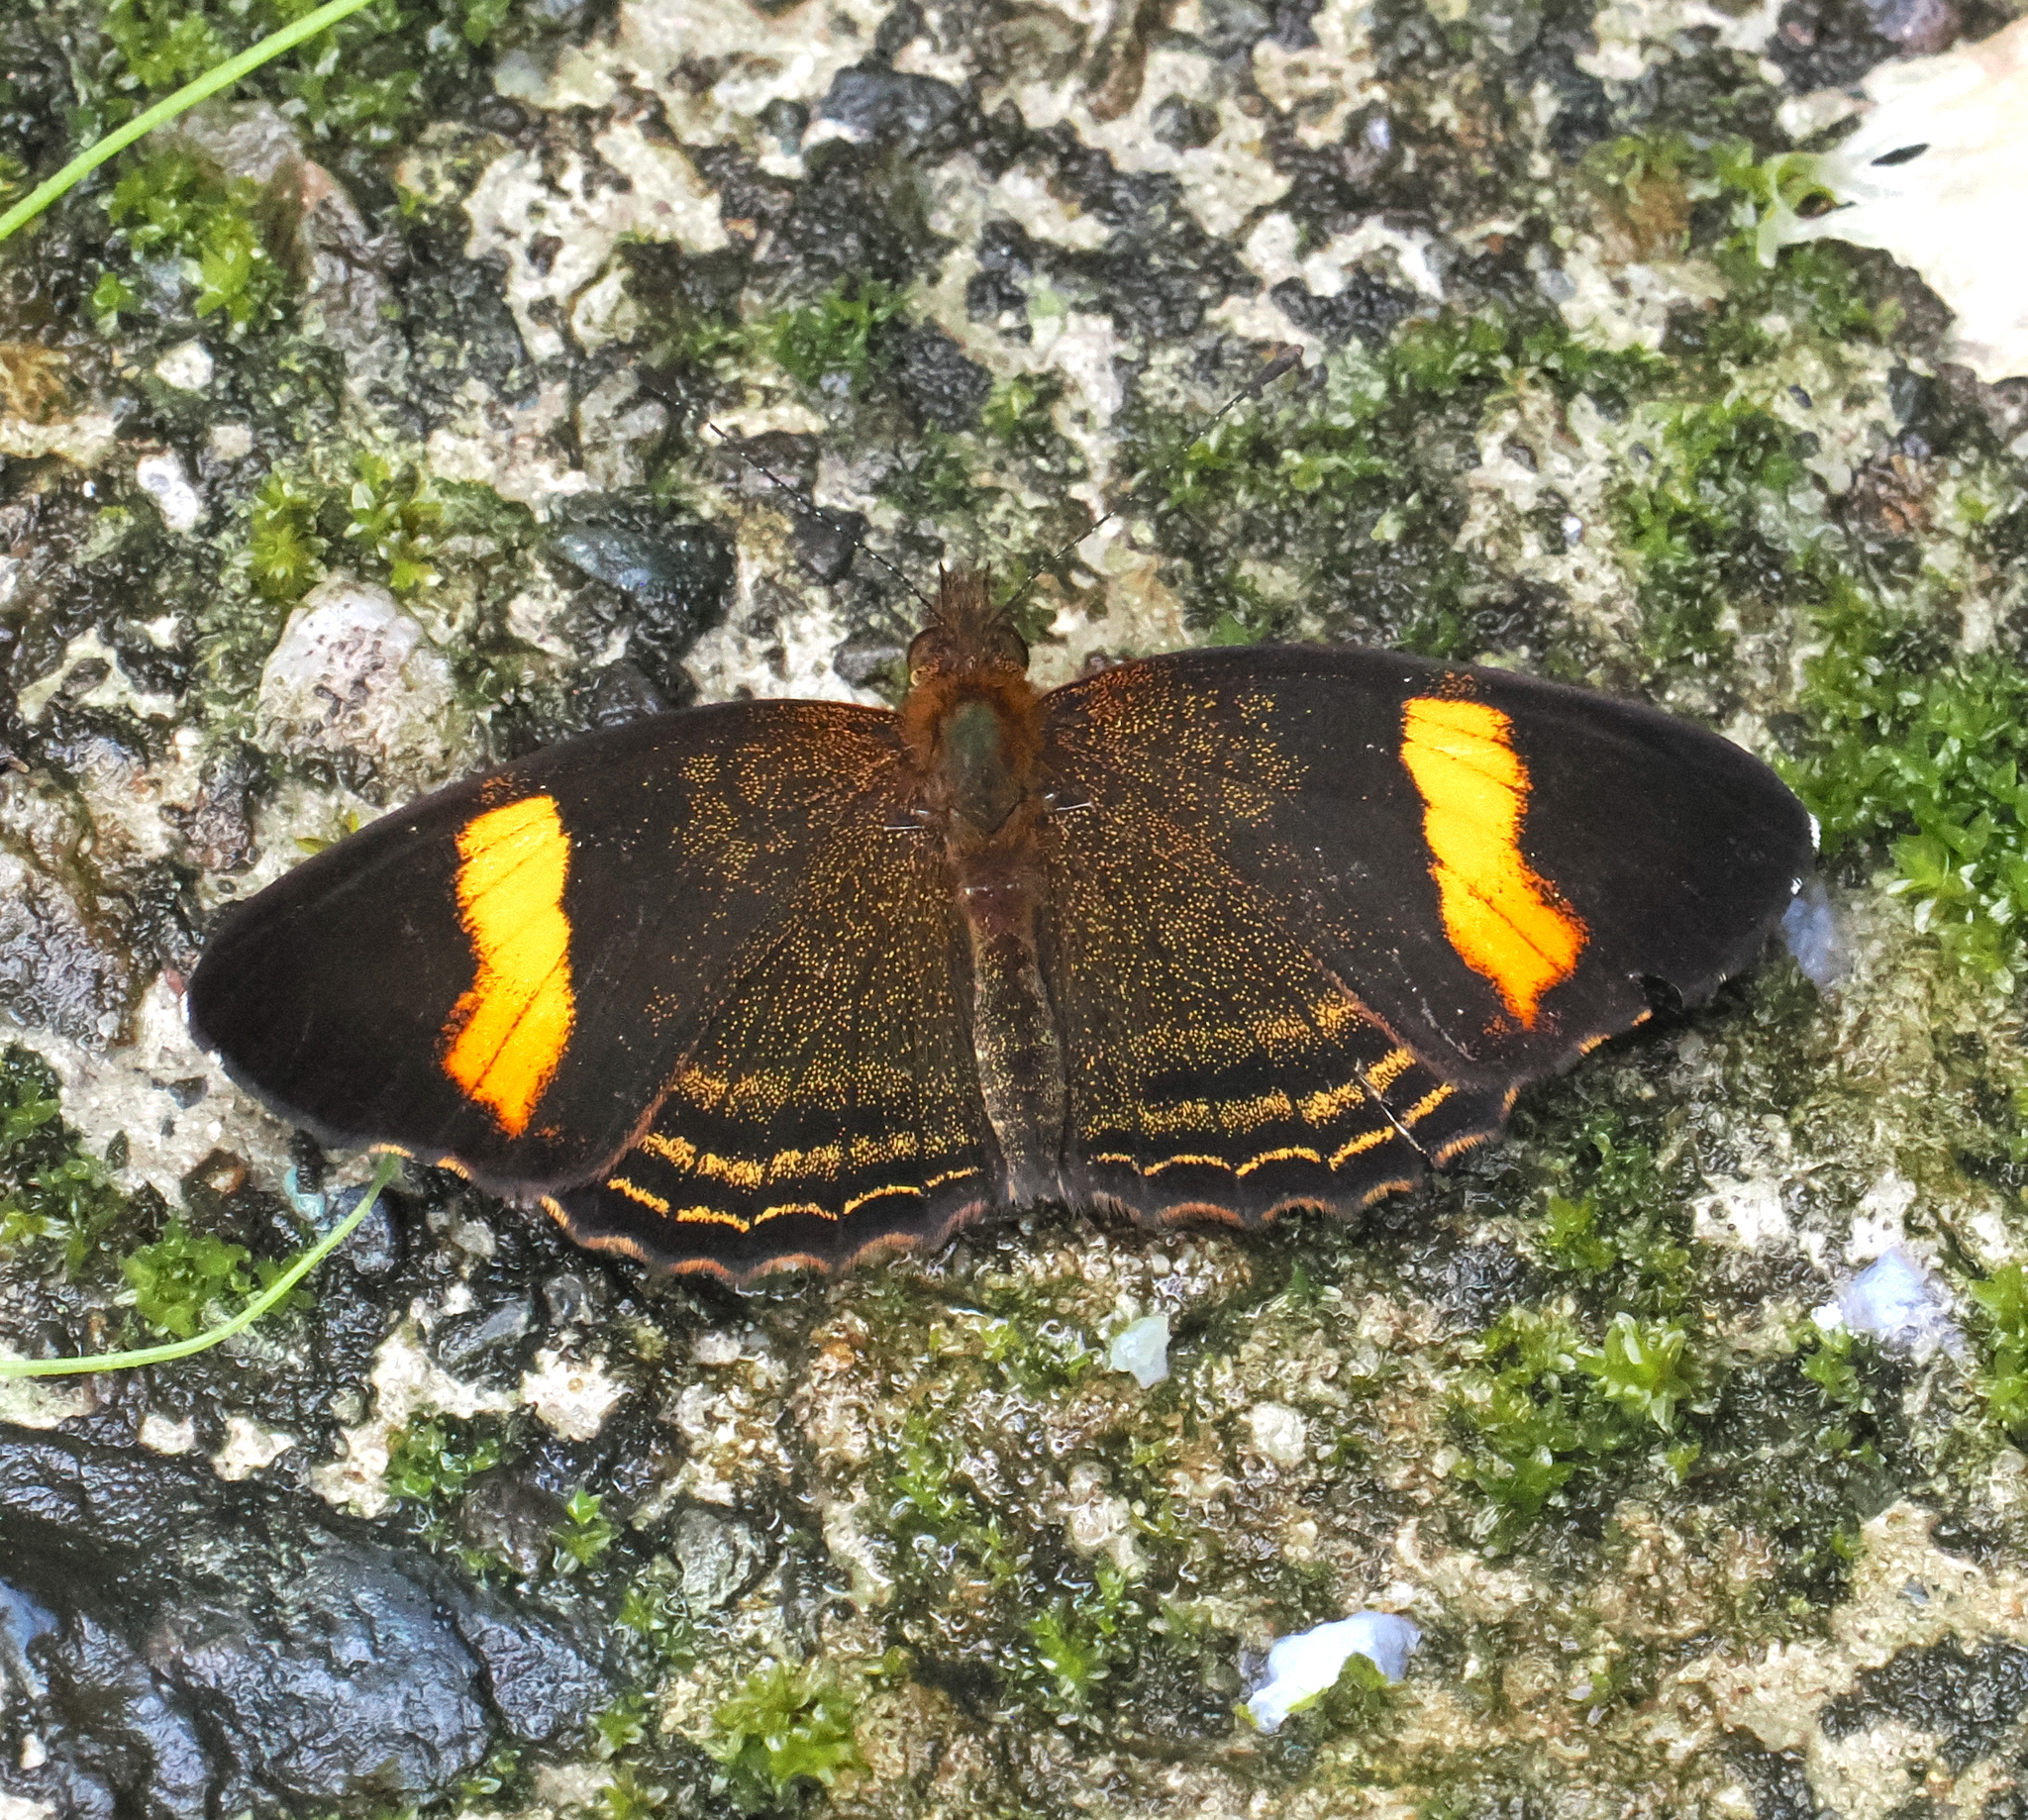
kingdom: Animalia
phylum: Arthropoda
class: Insecta
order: Lepidoptera
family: Nymphalidae
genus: Telenassa
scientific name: Telenassa jana
